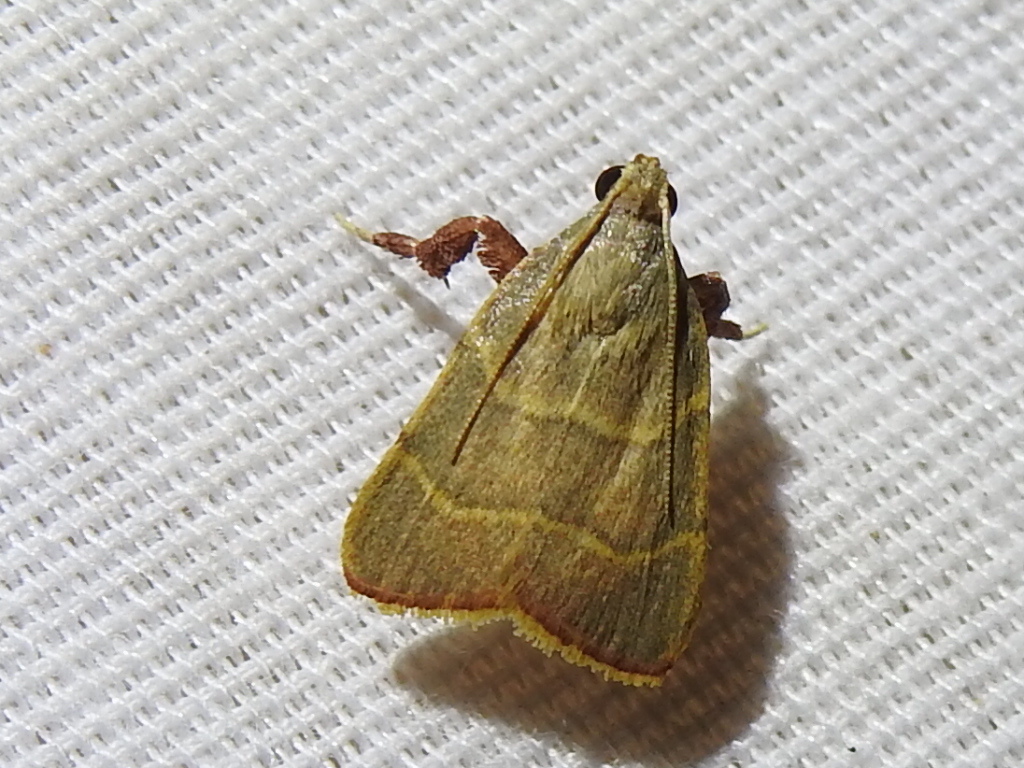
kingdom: Animalia
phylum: Arthropoda
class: Insecta
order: Lepidoptera
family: Pyralidae
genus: Parachma
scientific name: Parachma ochracealis
